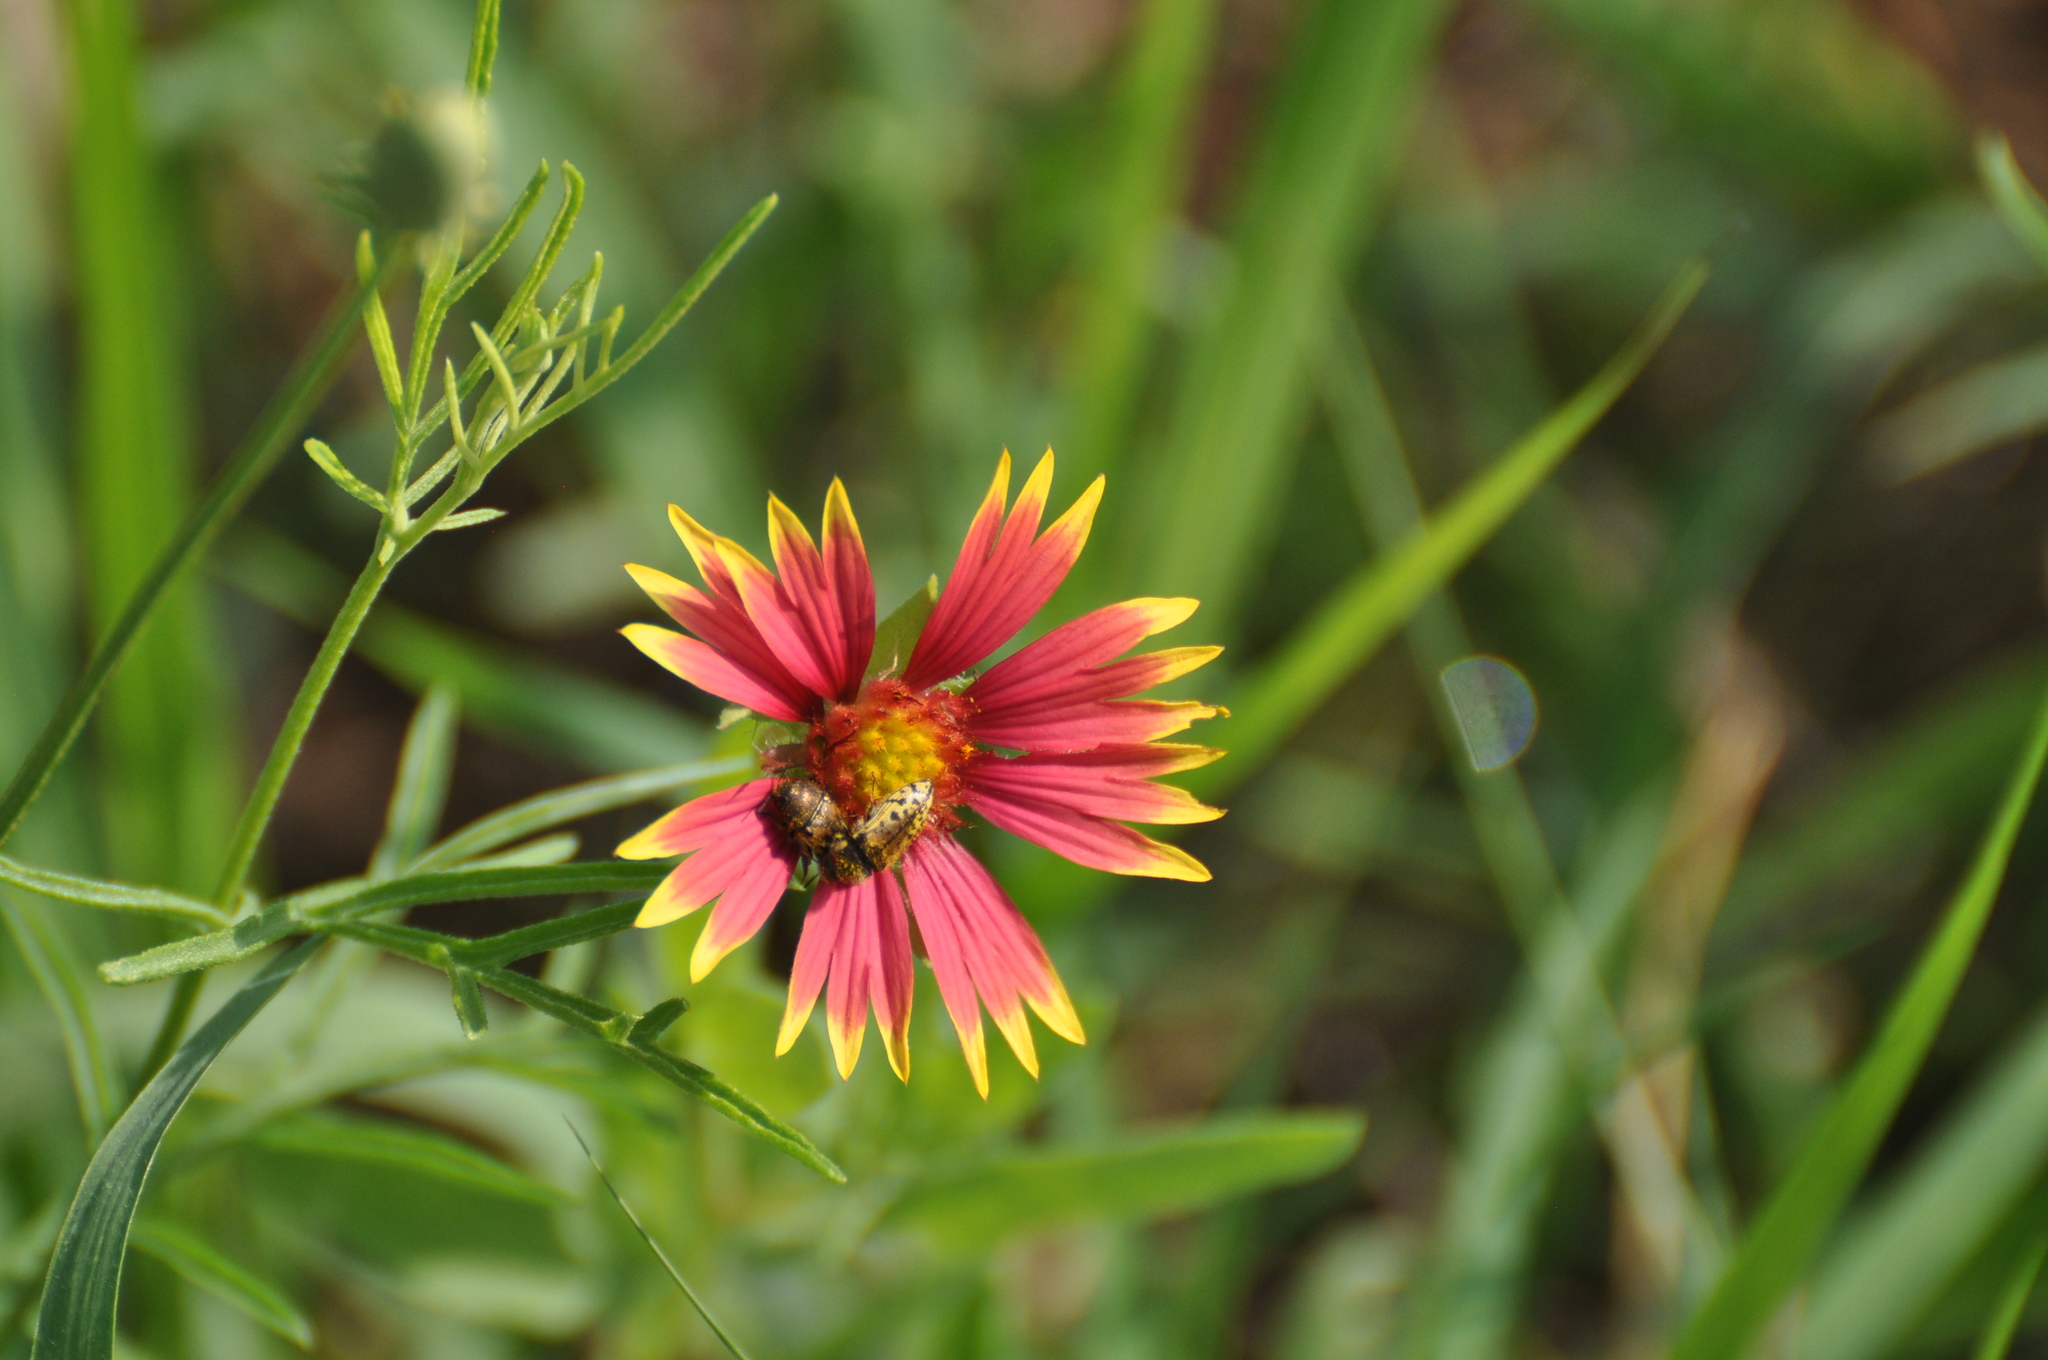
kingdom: Animalia
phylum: Arthropoda
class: Insecta
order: Coleoptera
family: Buprestidae
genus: Acmaeodera
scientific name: Acmaeodera mixta
